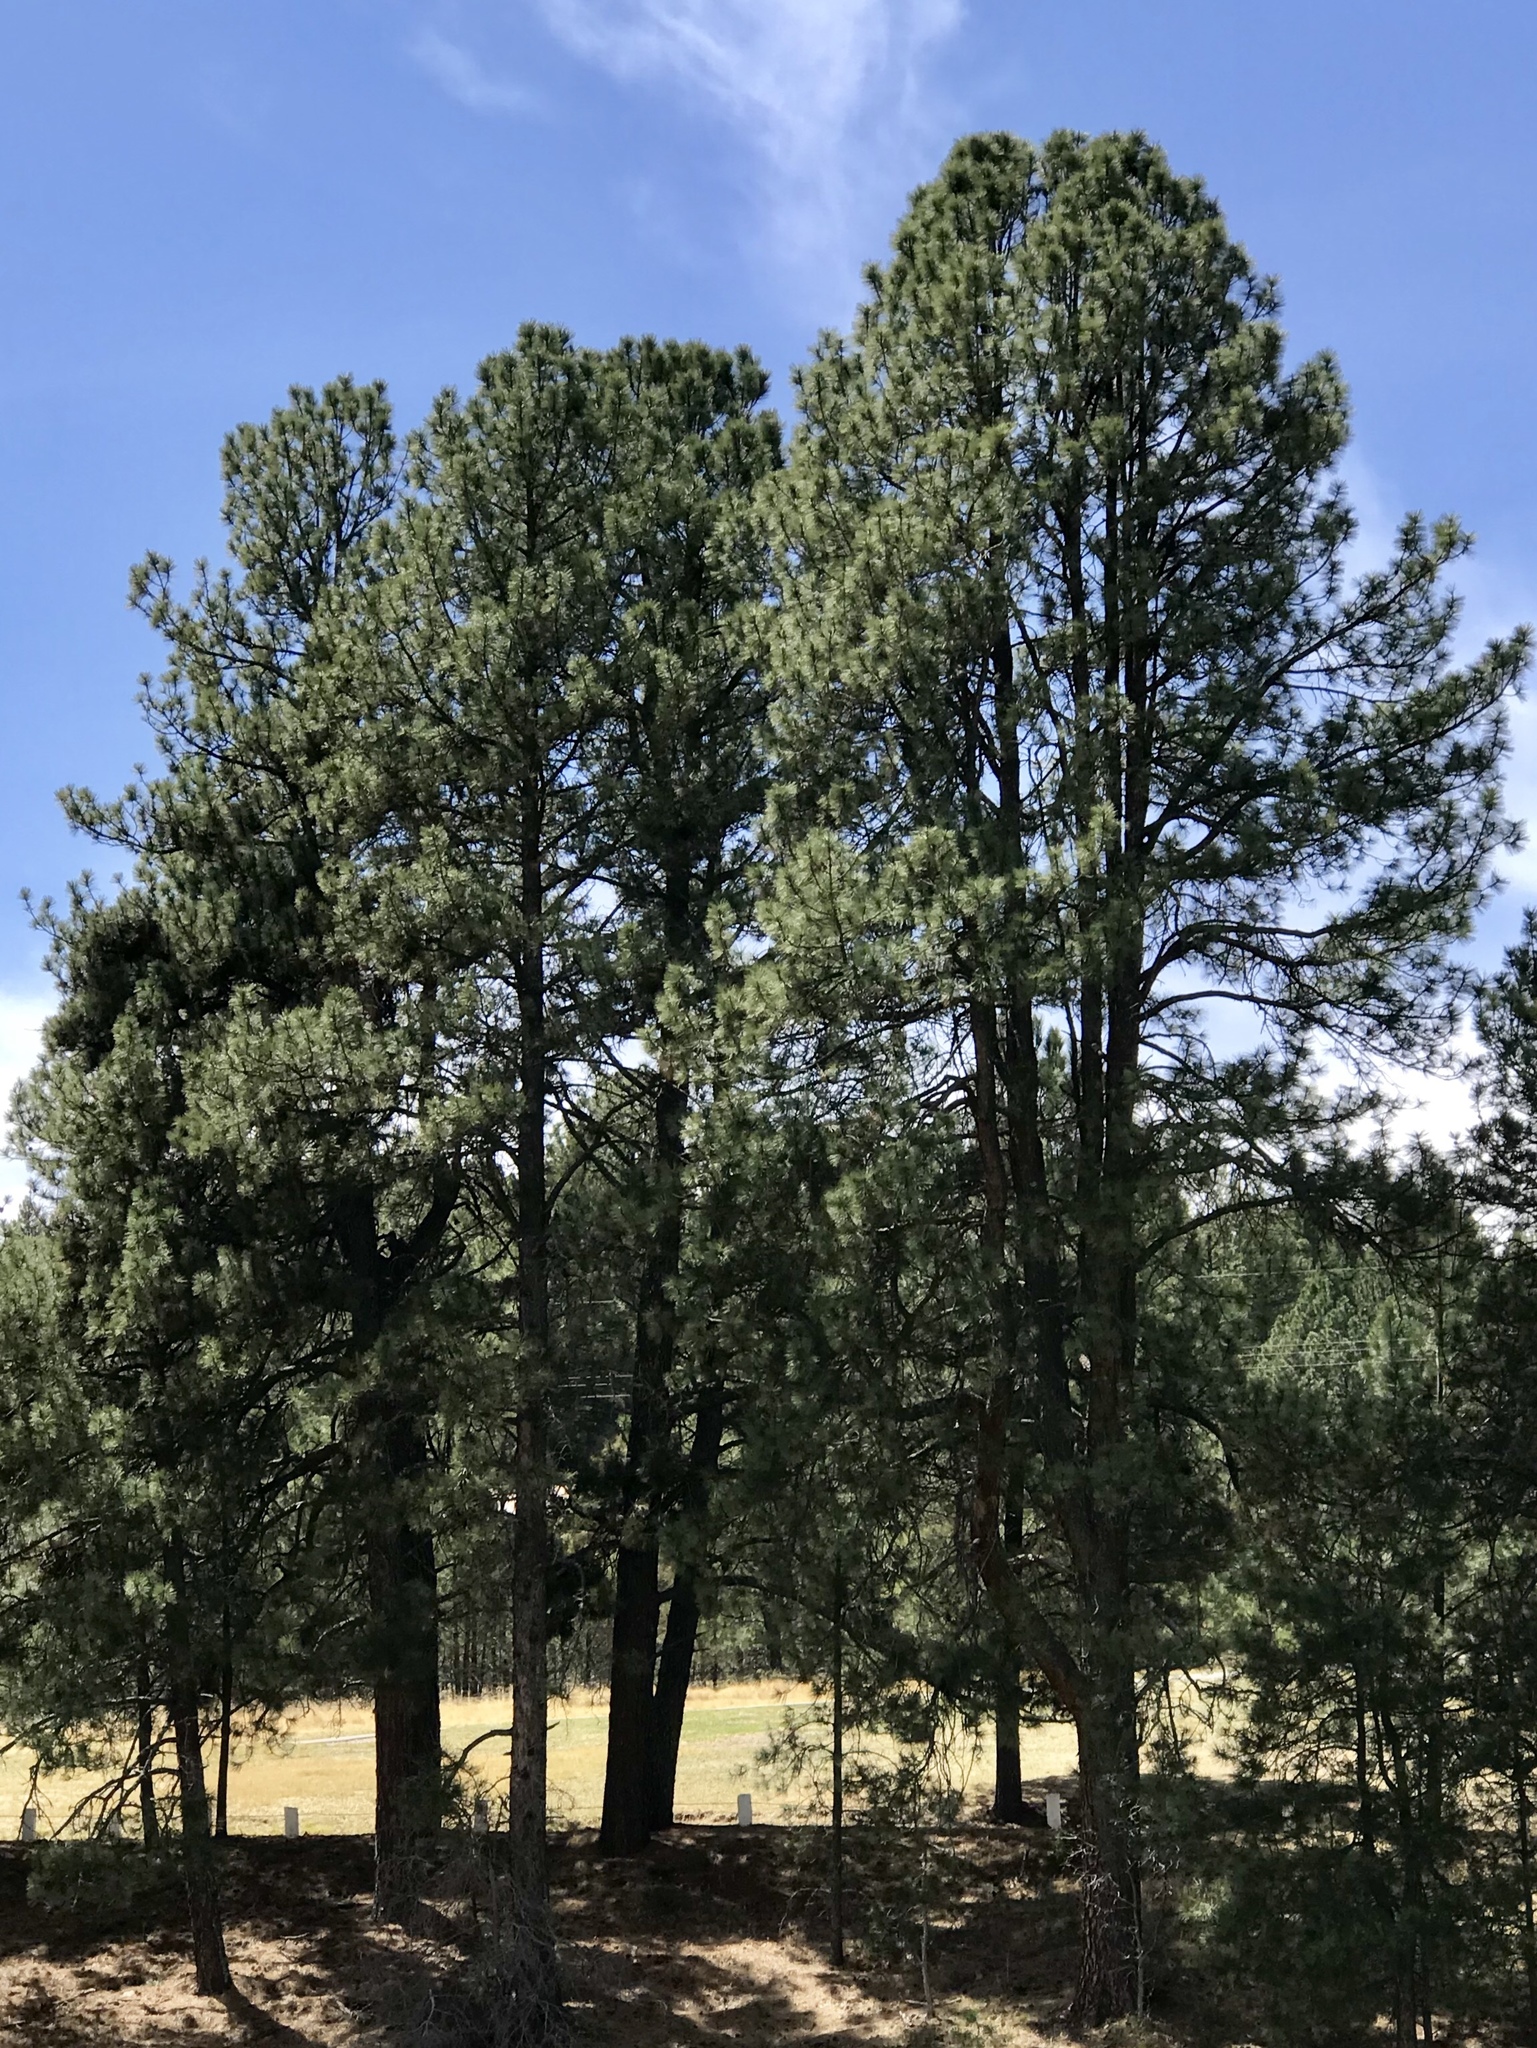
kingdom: Plantae
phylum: Tracheophyta
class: Pinopsida
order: Pinales
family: Pinaceae
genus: Pinus
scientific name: Pinus ponderosa
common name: Western yellow-pine
